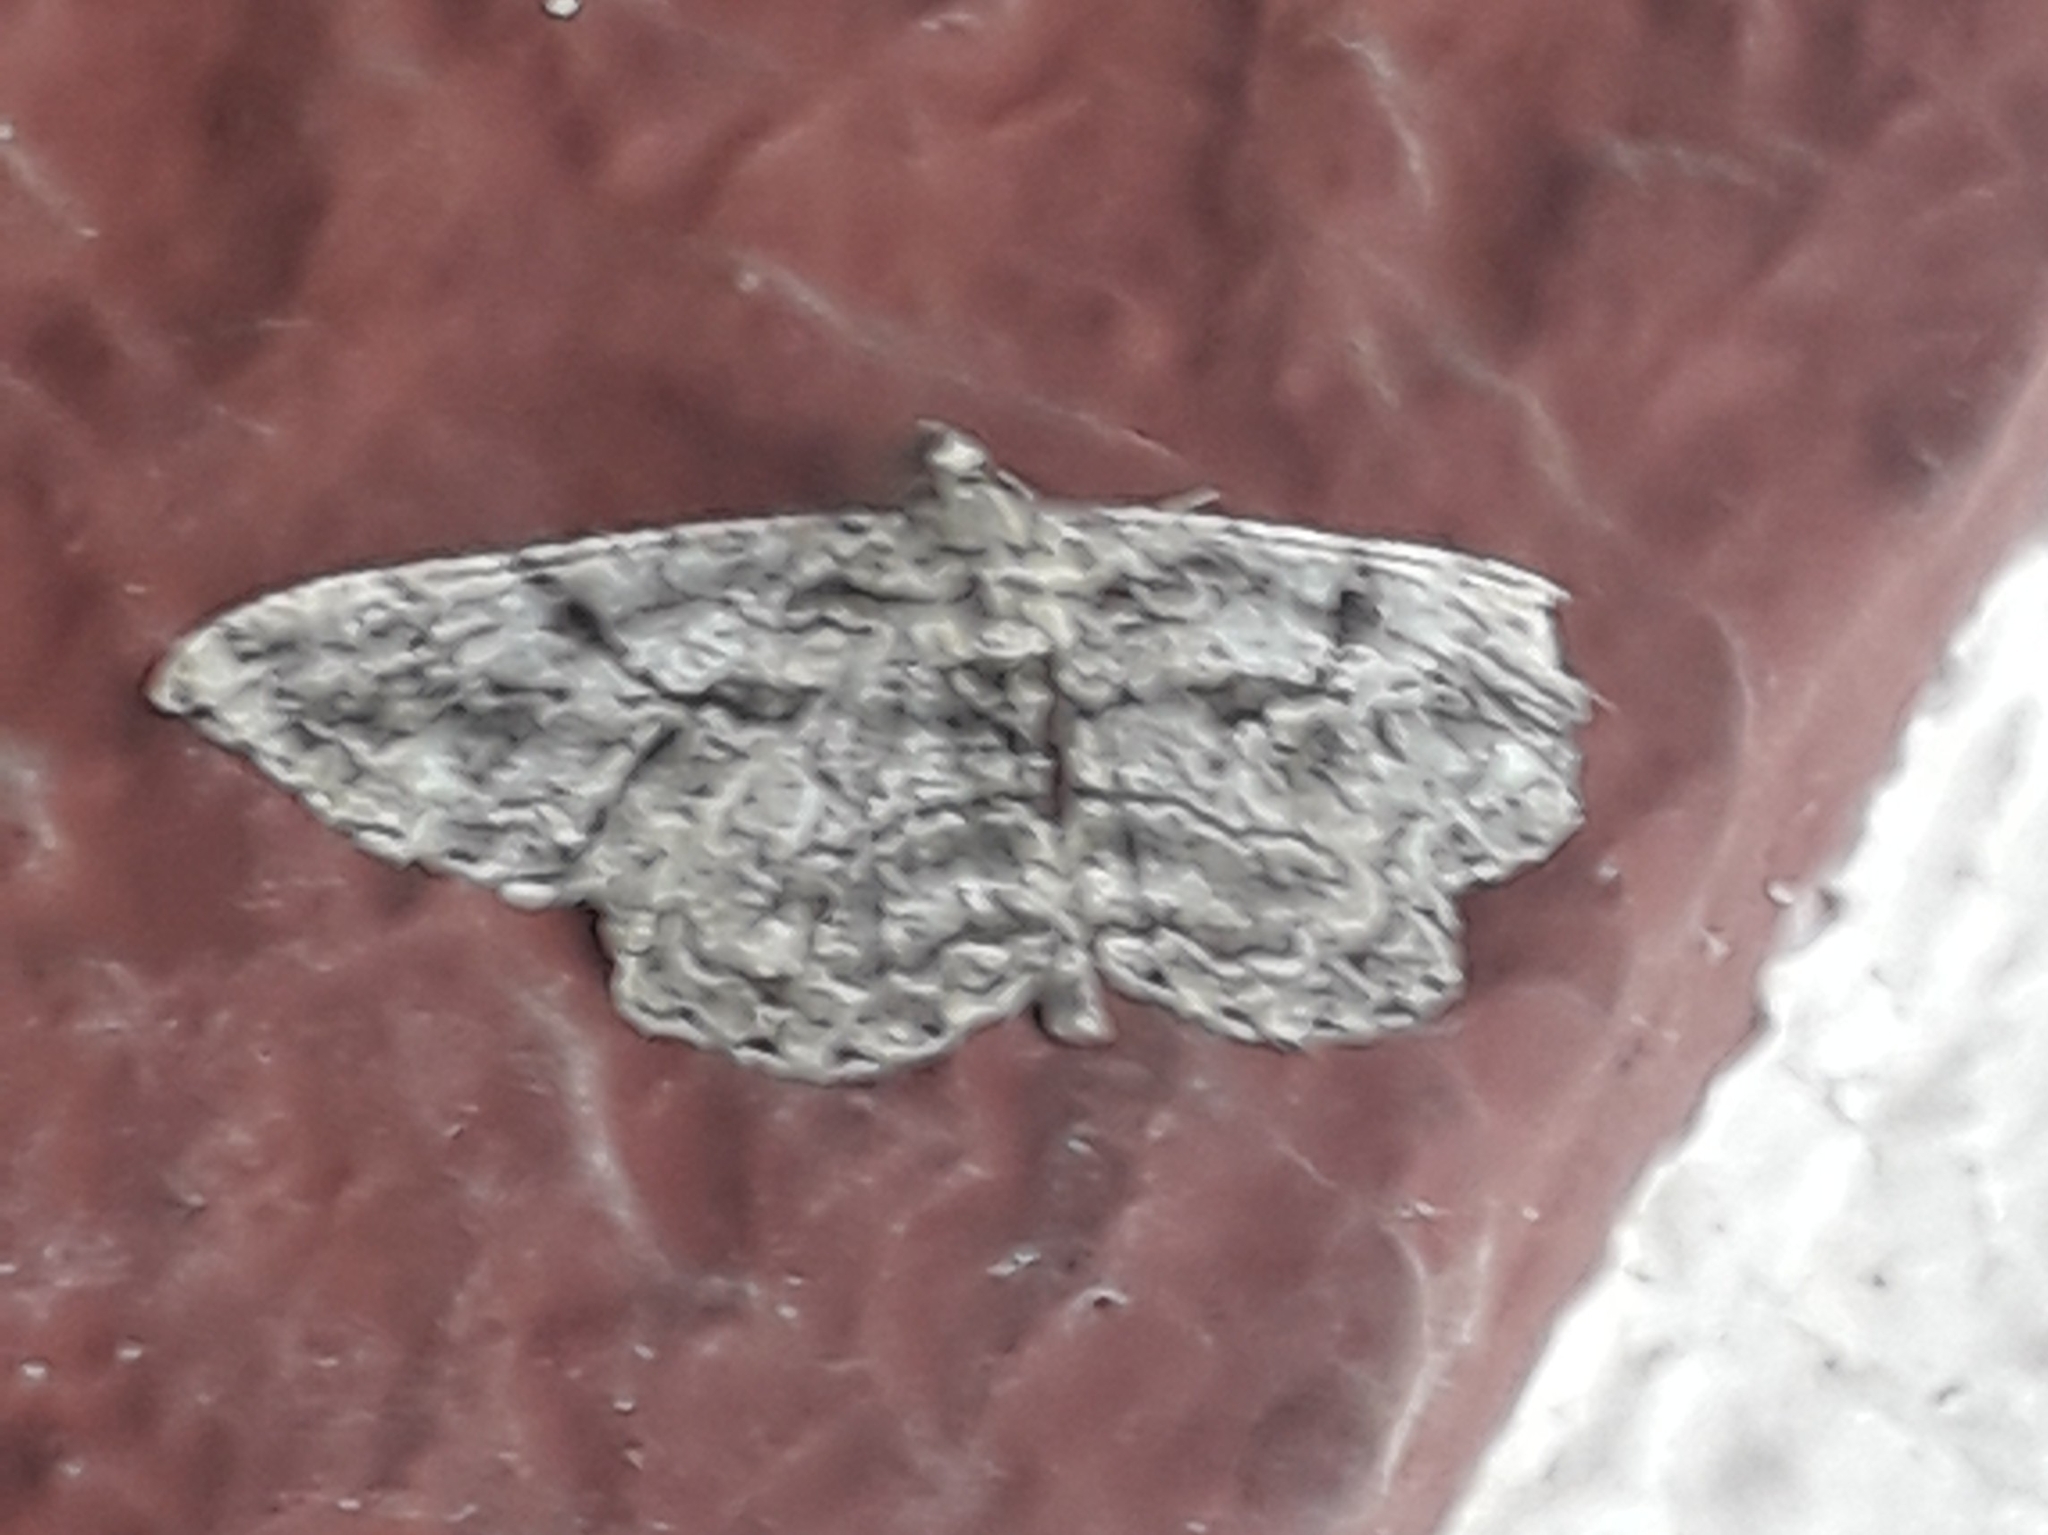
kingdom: Animalia
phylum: Arthropoda
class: Insecta
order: Lepidoptera
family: Geometridae
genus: Peribatodes
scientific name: Peribatodes rhomboidaria
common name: Willow beauty
